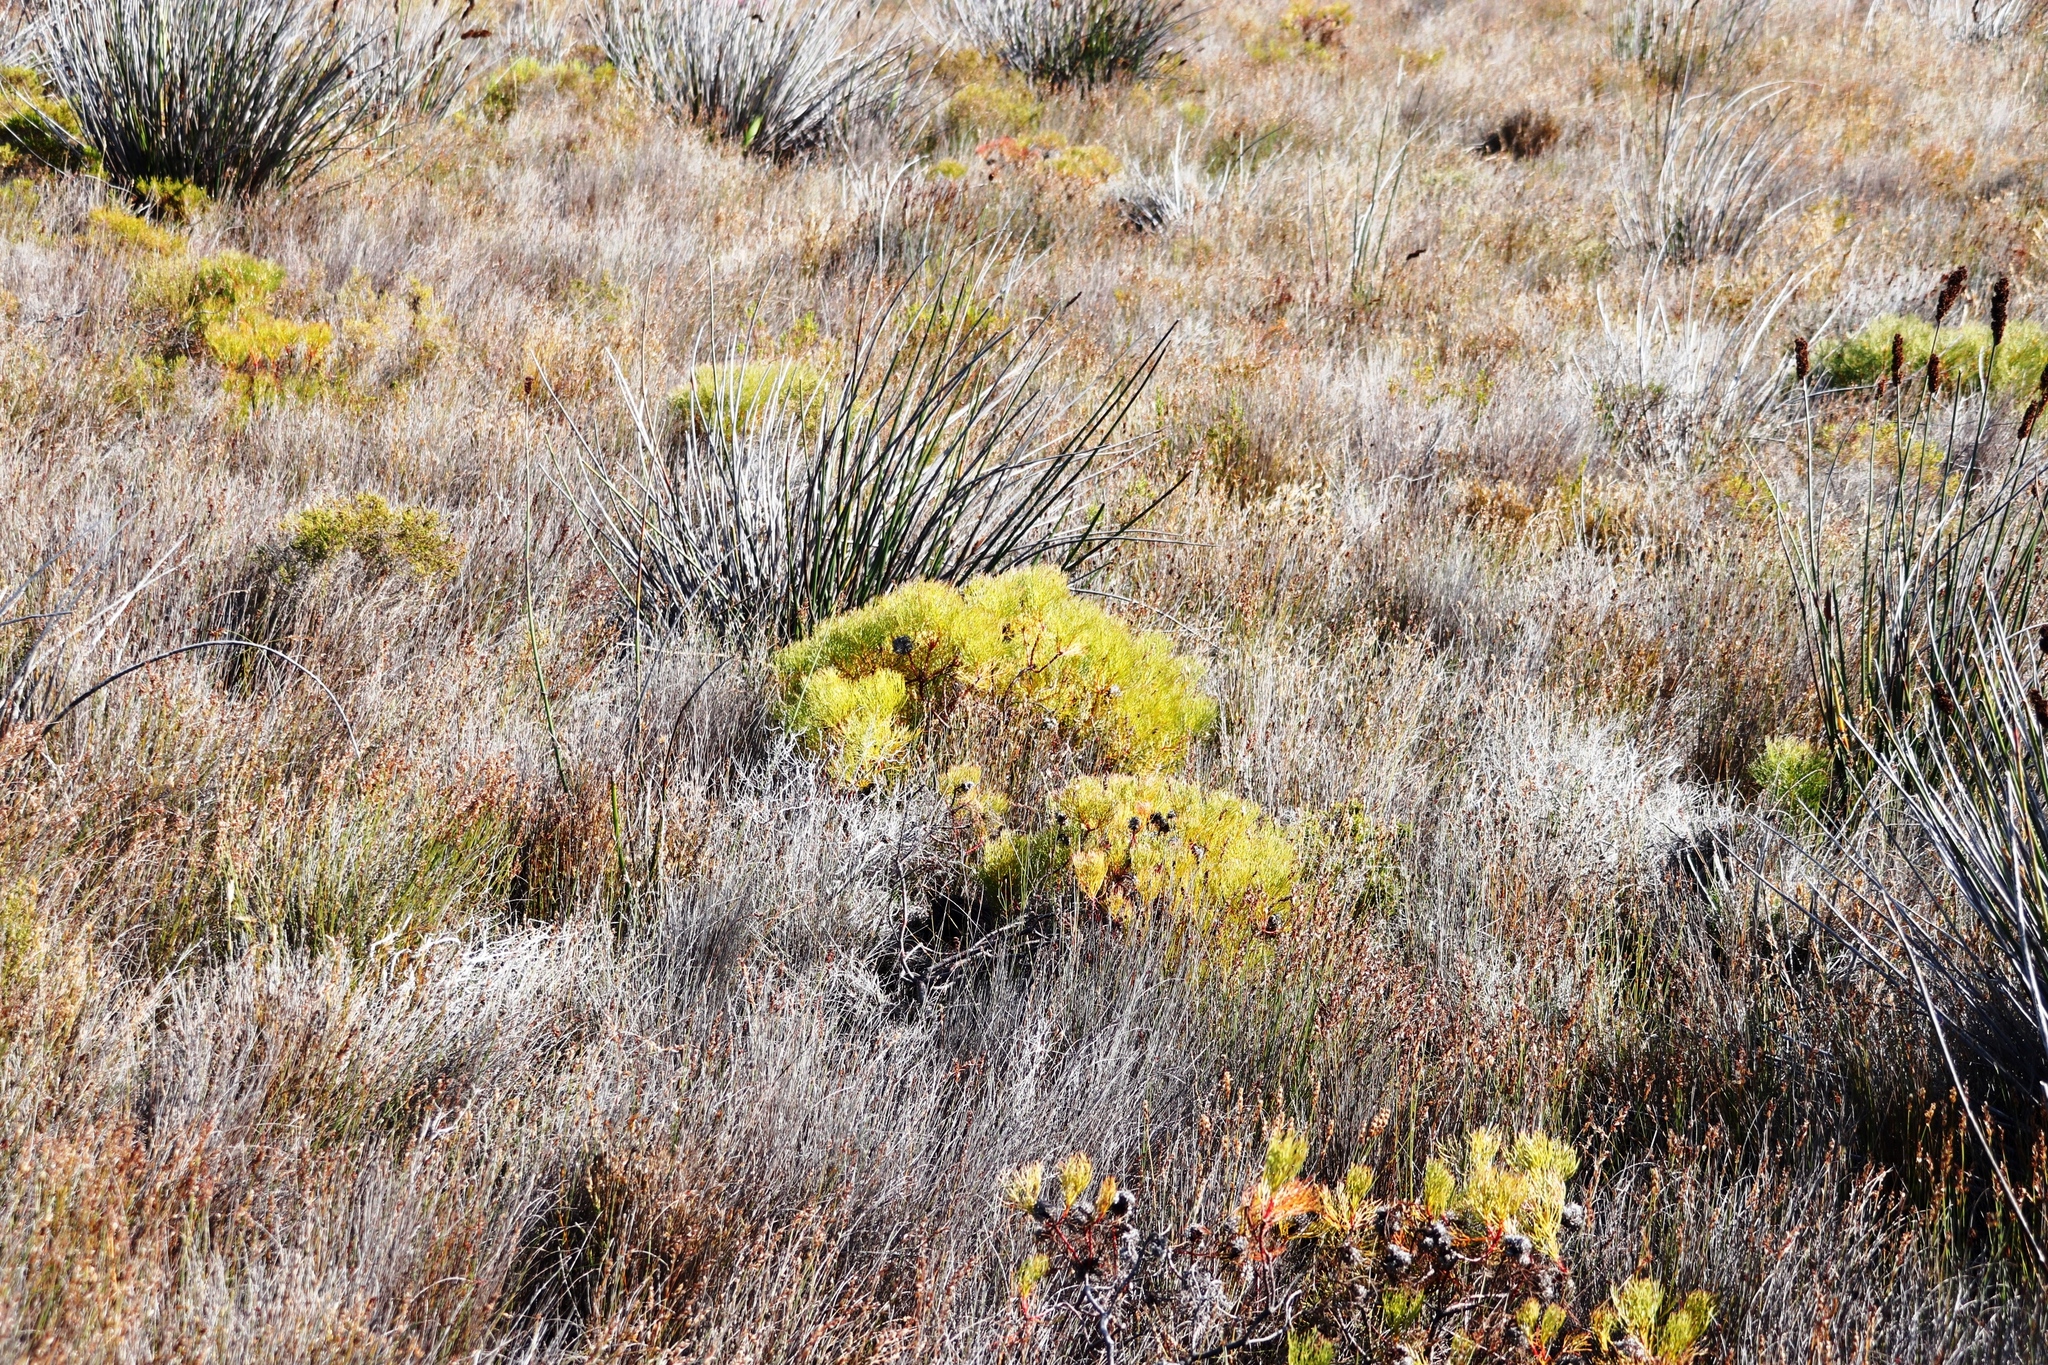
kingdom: Plantae
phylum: Tracheophyta
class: Magnoliopsida
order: Proteales
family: Proteaceae
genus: Serruria
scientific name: Serruria glomerata
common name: Cluster spiderhead
